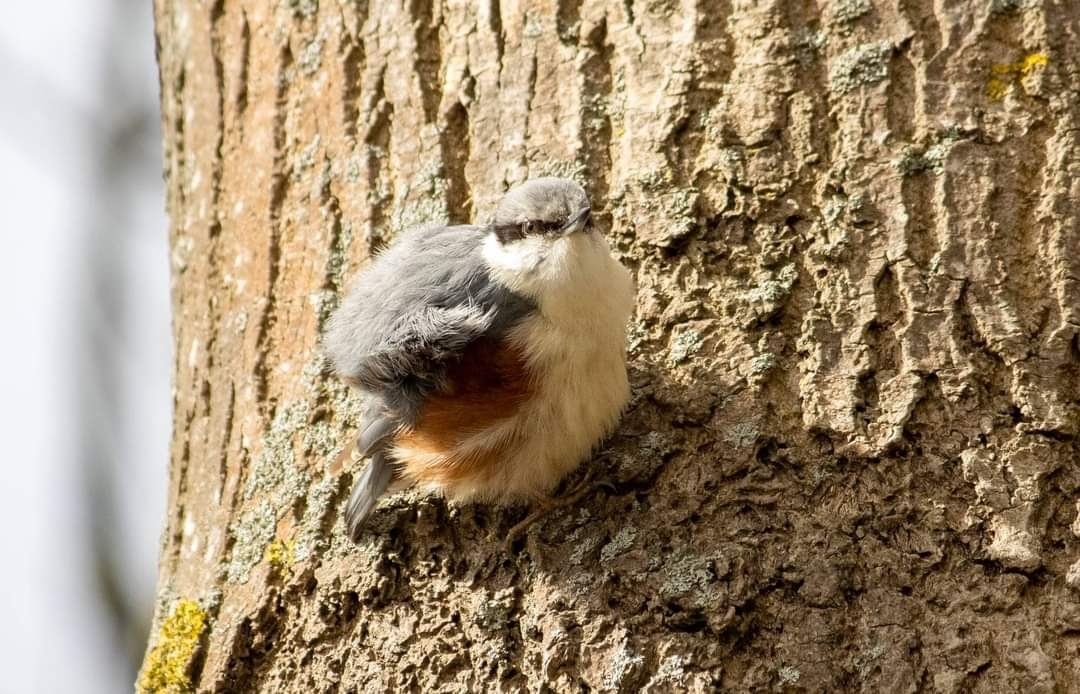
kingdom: Animalia
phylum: Chordata
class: Aves
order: Passeriformes
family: Sittidae
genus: Sitta
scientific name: Sitta europaea
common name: Eurasian nuthatch
